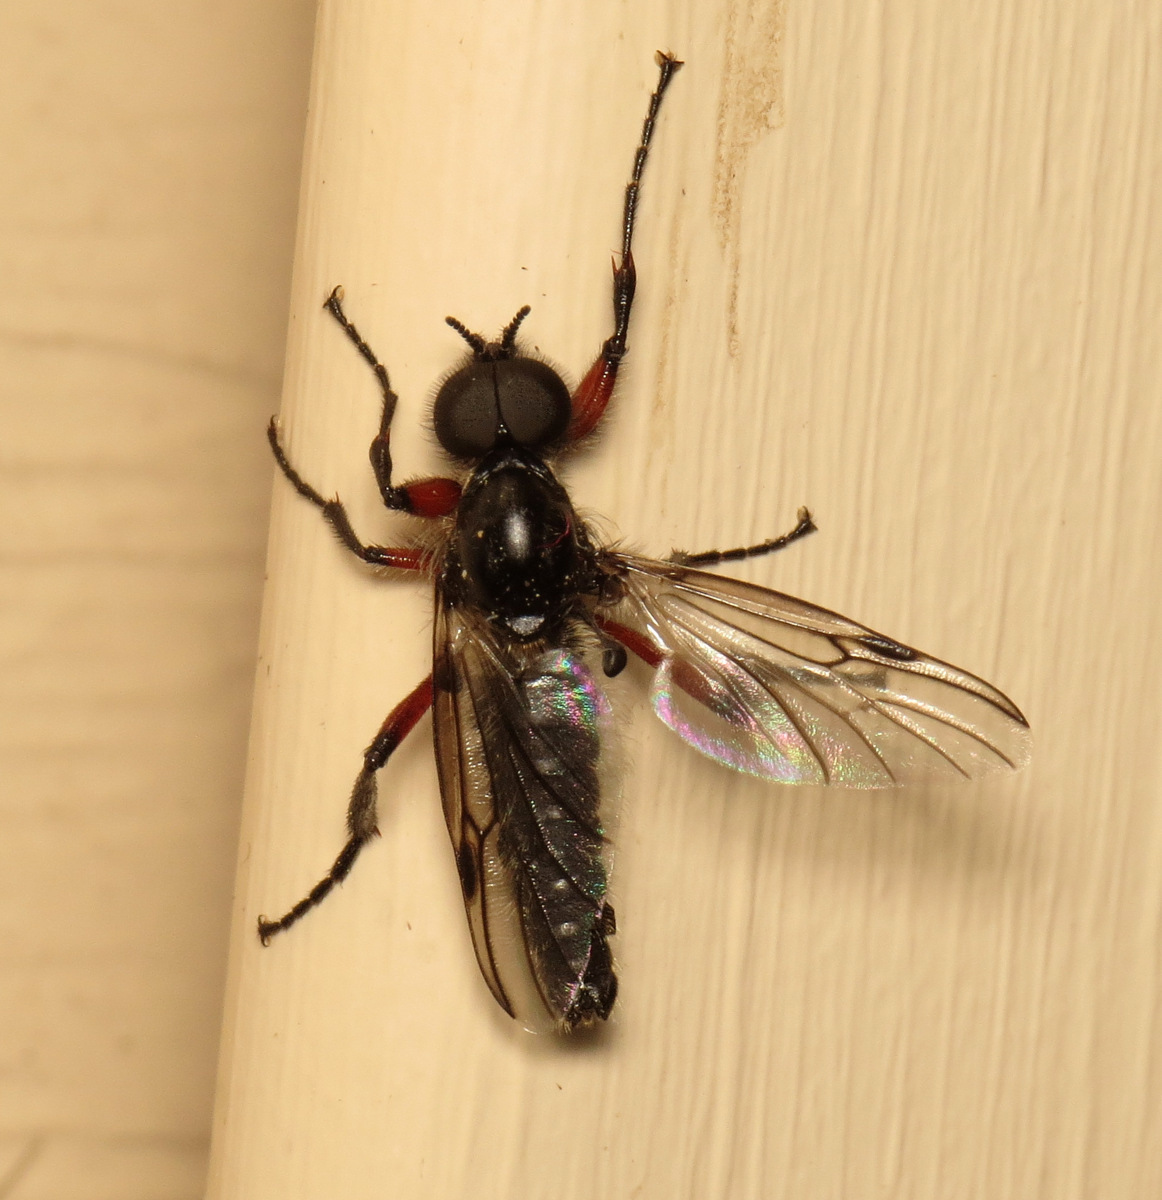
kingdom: Animalia
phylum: Arthropoda
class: Insecta
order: Diptera
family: Bibionidae
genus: Bibio
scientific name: Bibio femoratus
